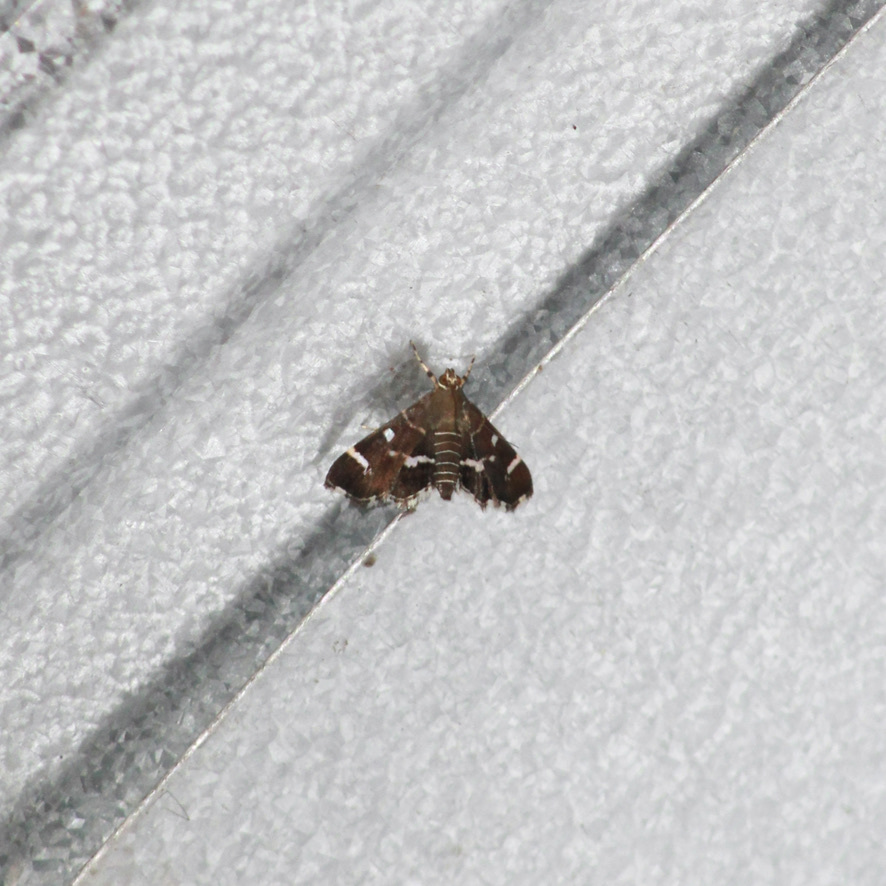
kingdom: Animalia
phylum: Arthropoda
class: Insecta
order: Lepidoptera
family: Crambidae
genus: Hymenia
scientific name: Hymenia perspectalis
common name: Spotted beet webworm
